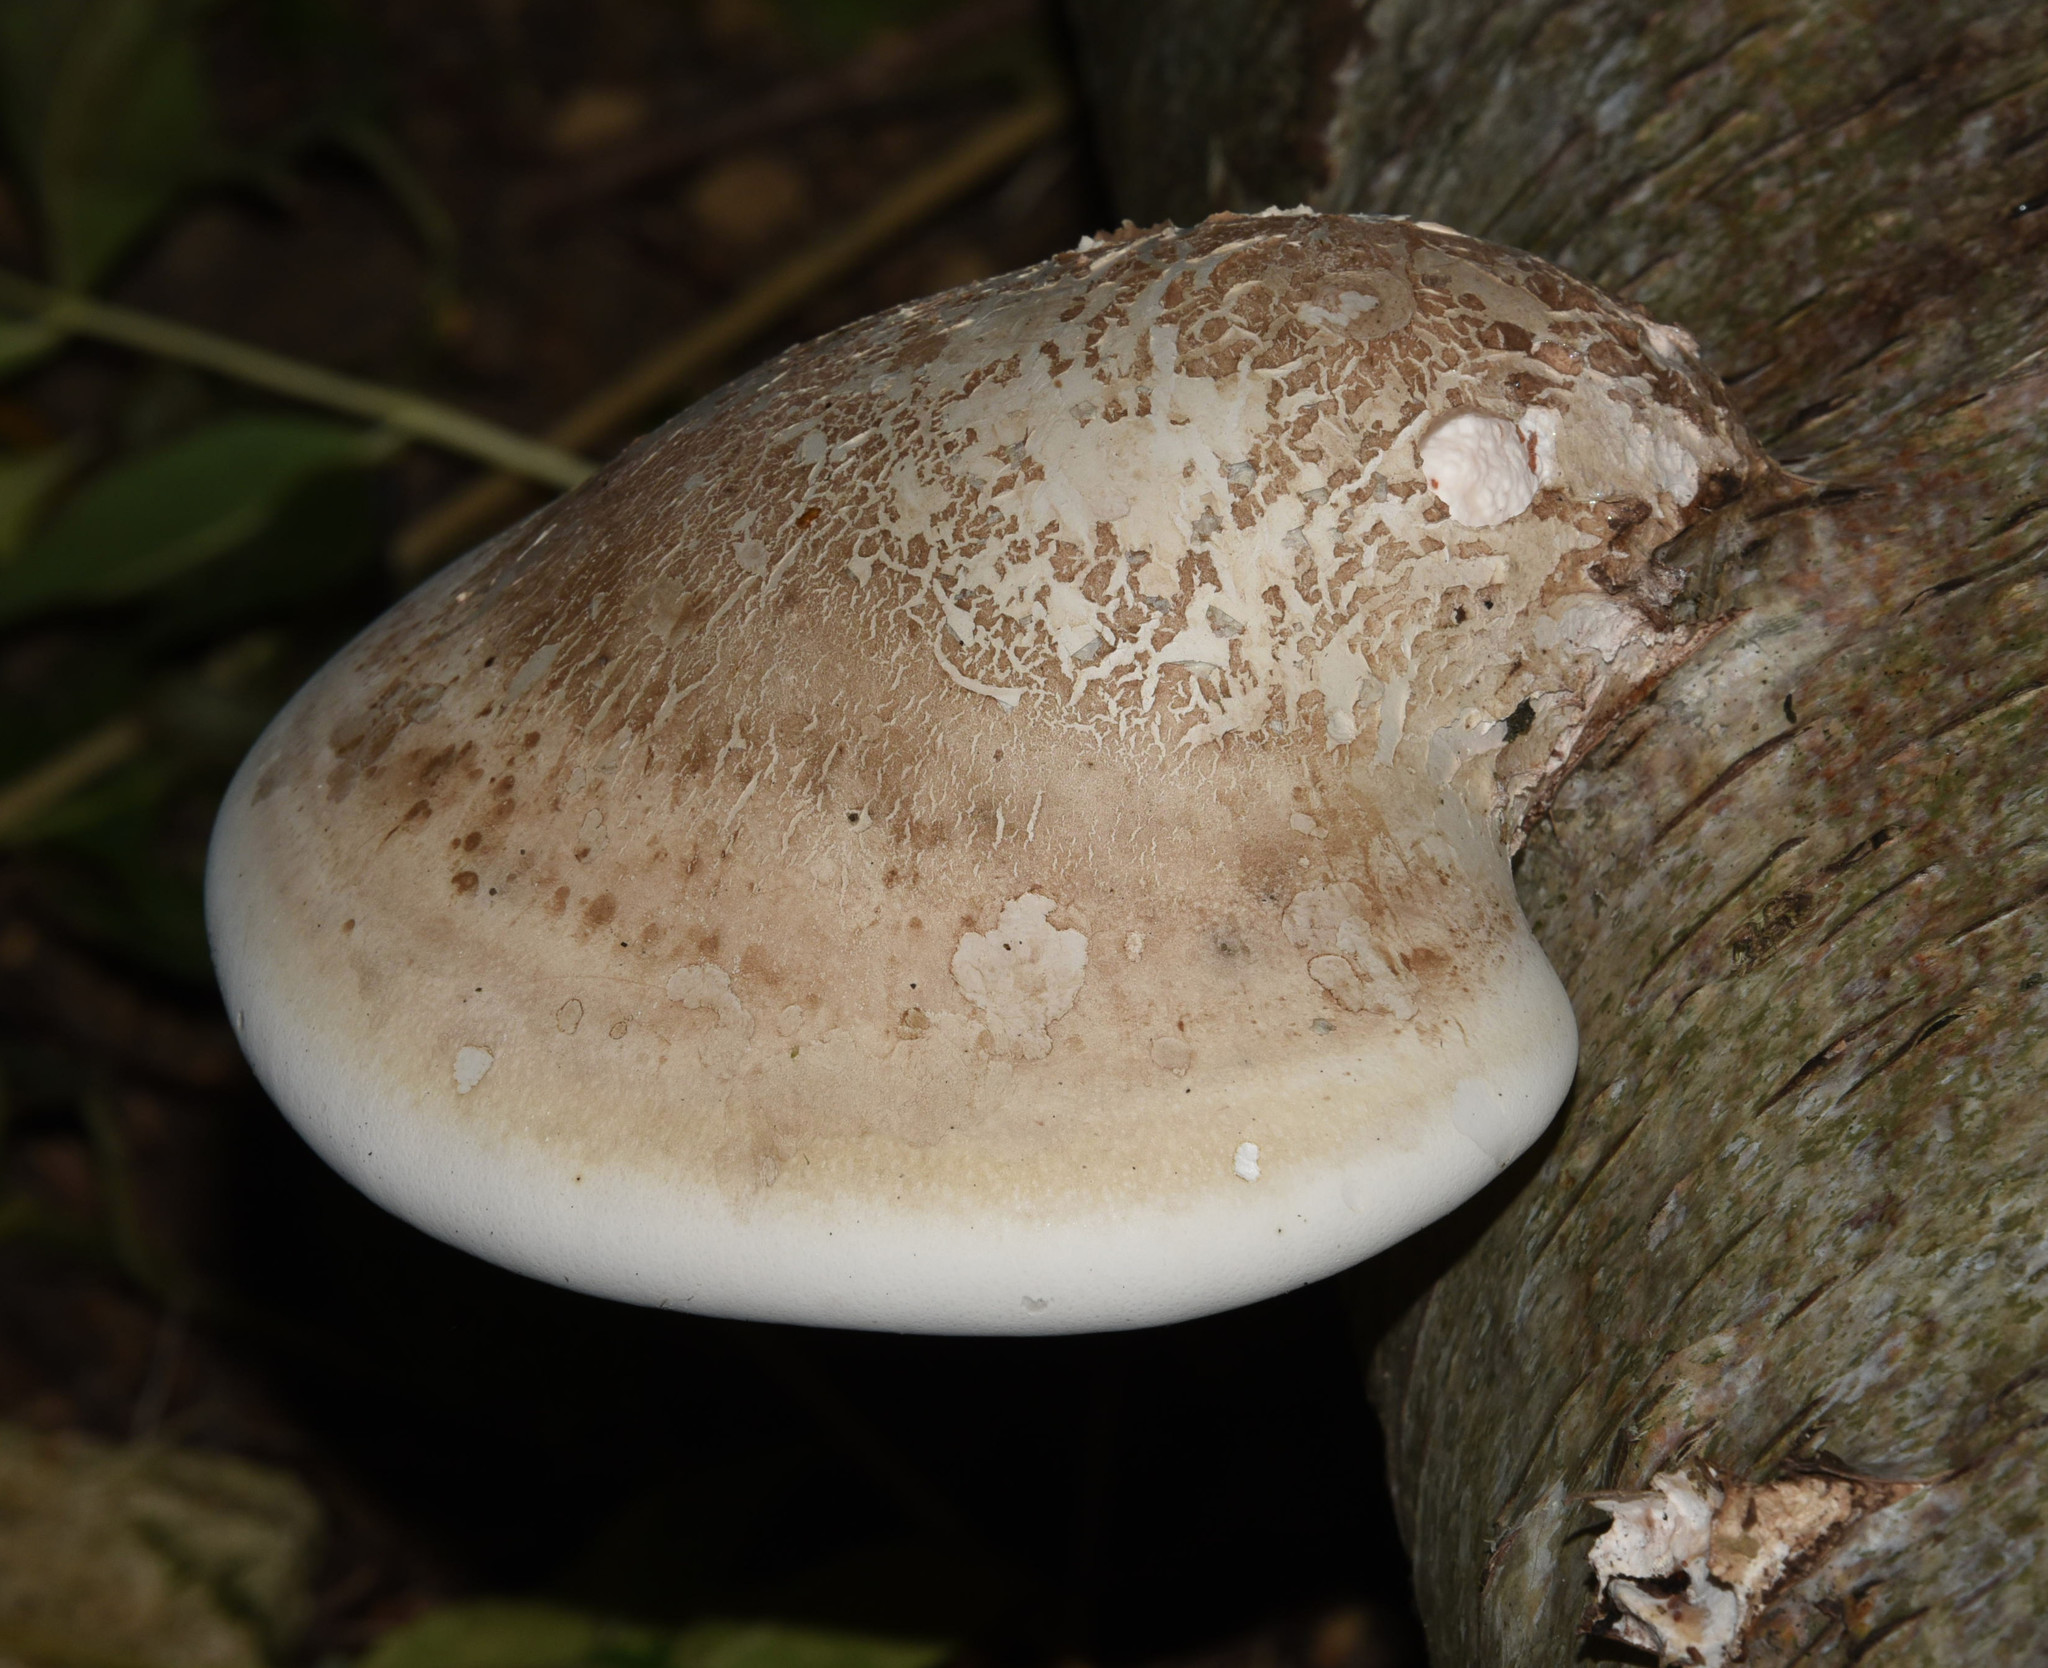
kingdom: Fungi
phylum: Basidiomycota
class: Agaricomycetes
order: Polyporales
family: Fomitopsidaceae
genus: Fomitopsis
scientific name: Fomitopsis betulina
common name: Birch polypore
